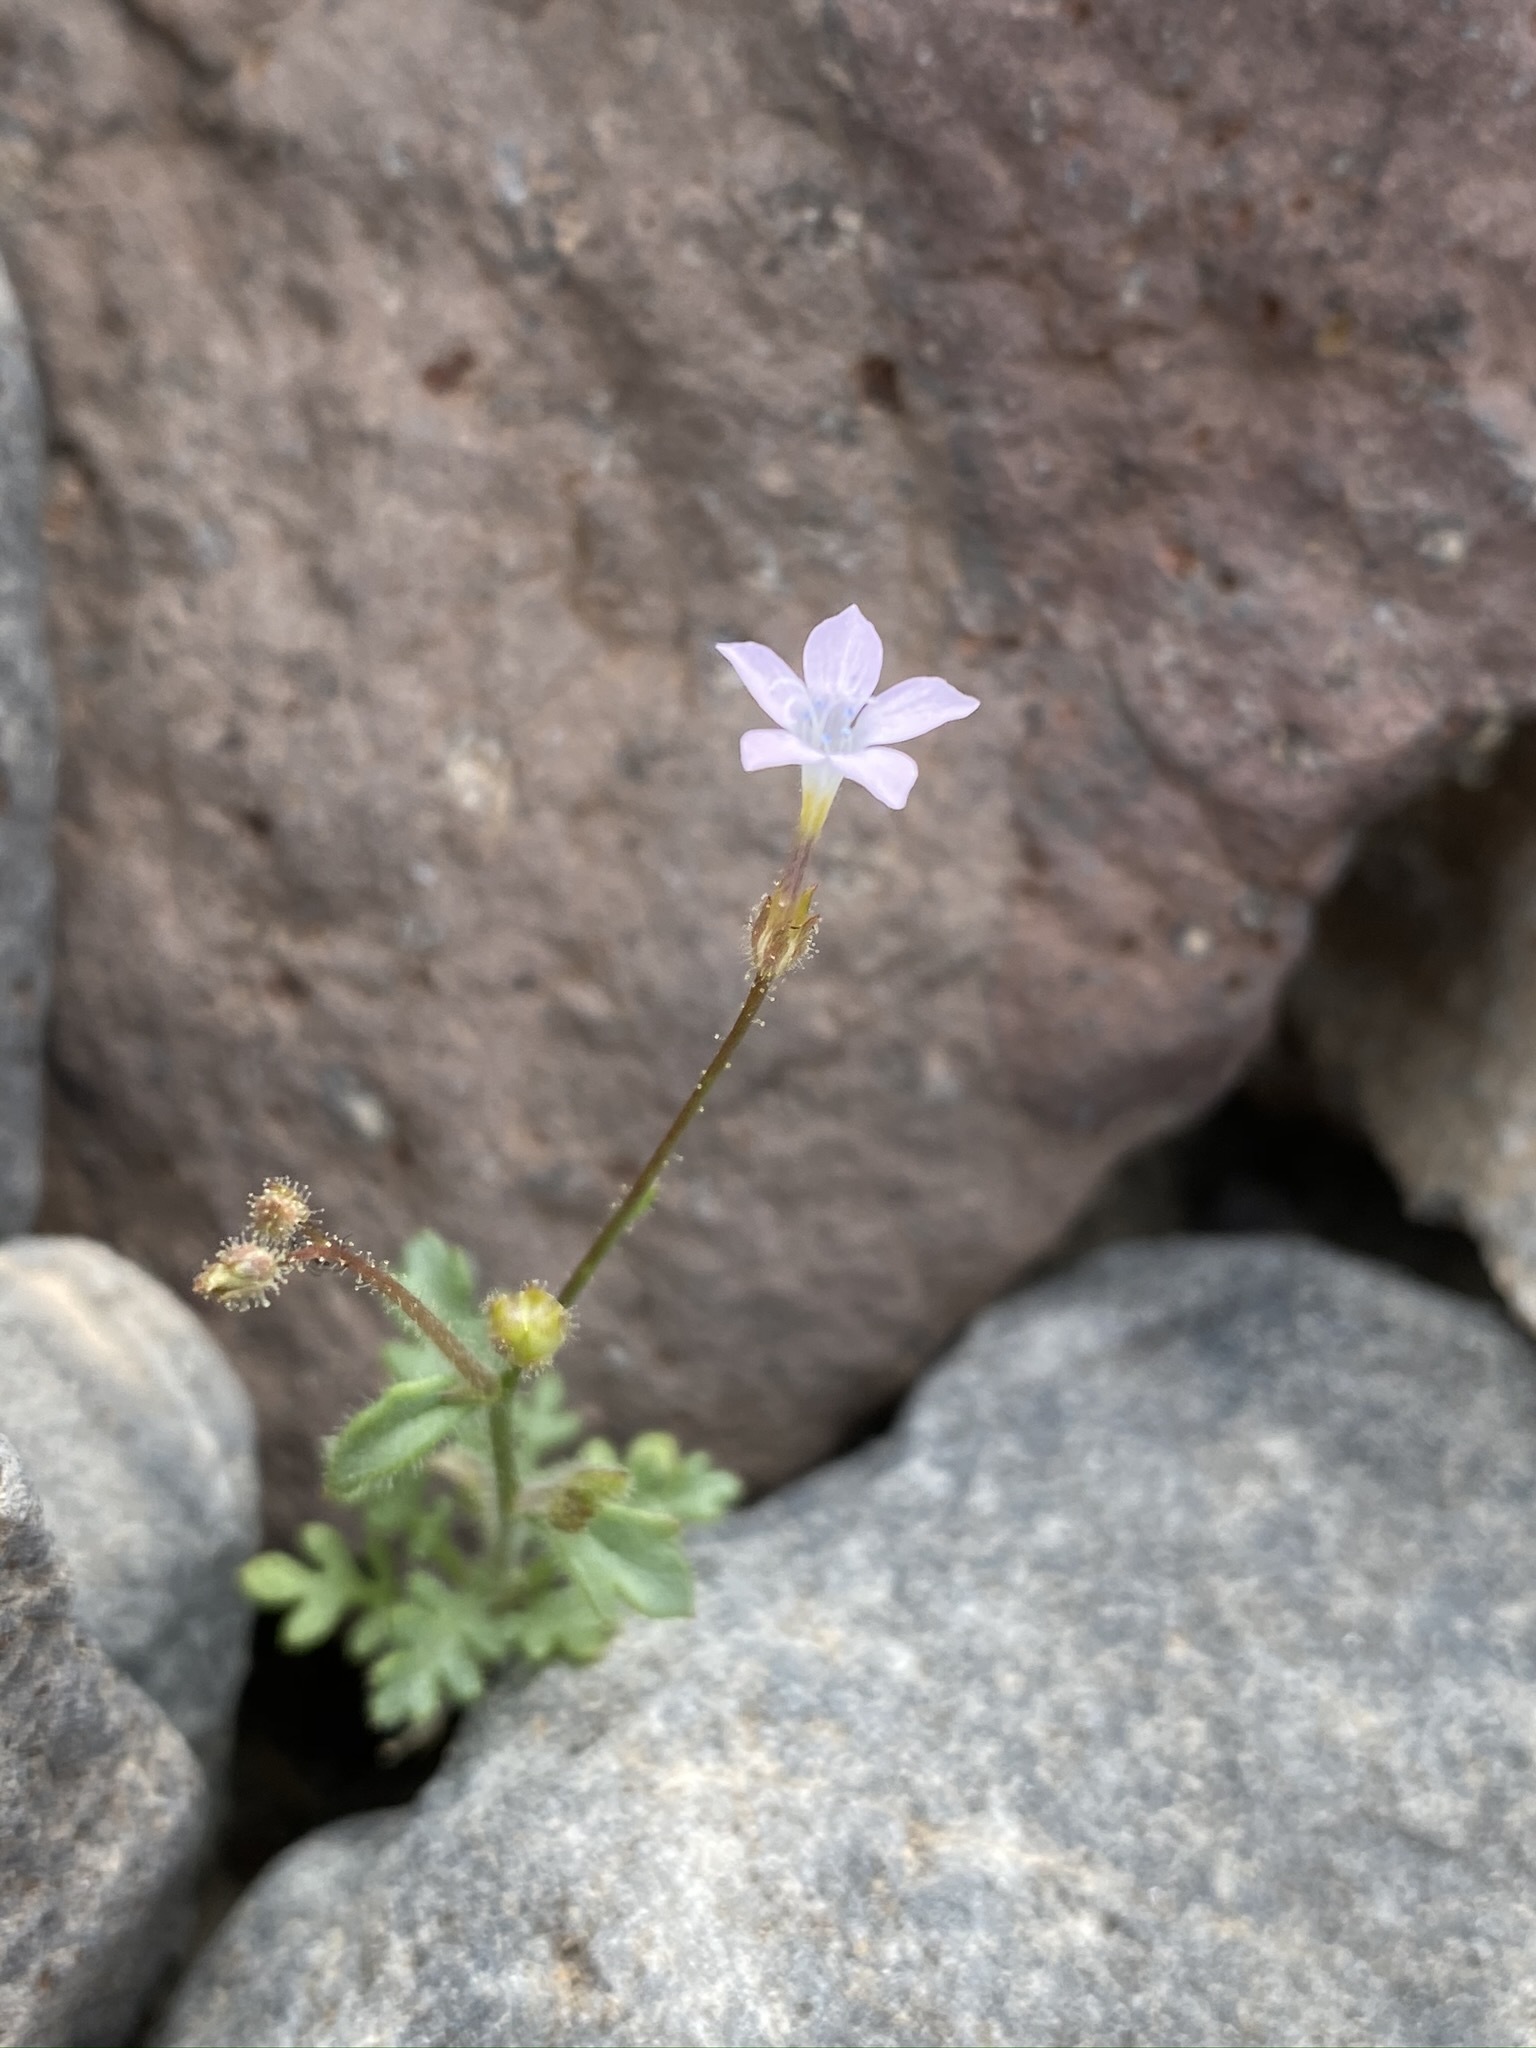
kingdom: Plantae
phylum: Tracheophyta
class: Magnoliopsida
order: Ericales
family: Polemoniaceae
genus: Gilia
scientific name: Gilia scopulorum
